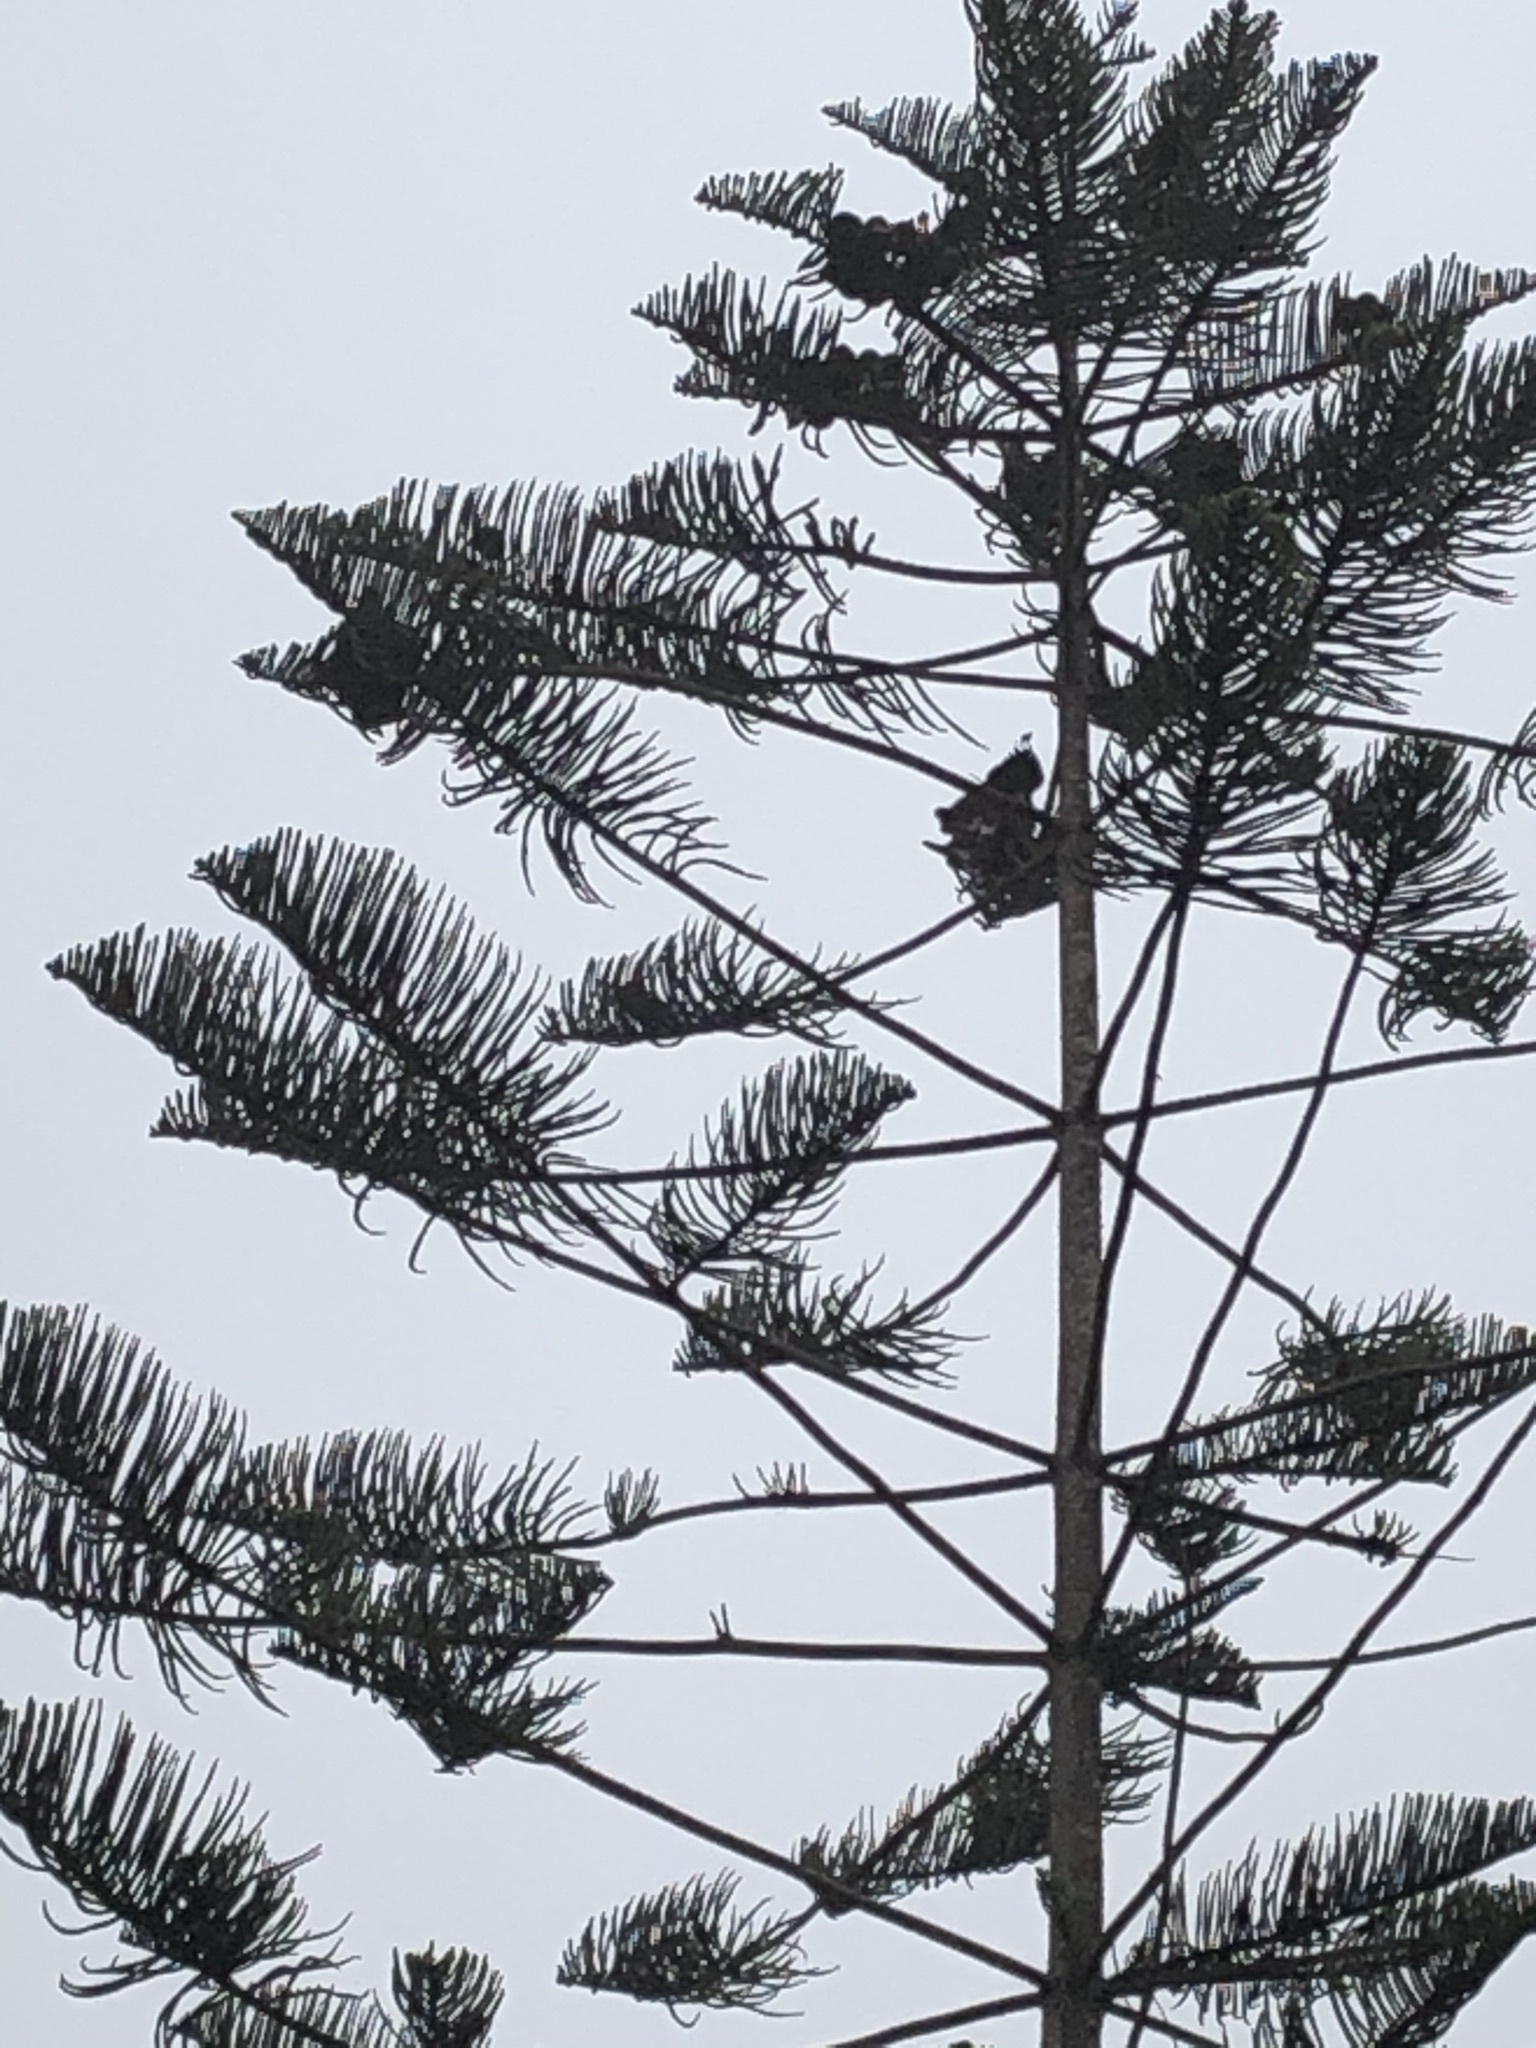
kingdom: Animalia
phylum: Chordata
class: Aves
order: Accipitriformes
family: Accipitridae
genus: Parabuteo
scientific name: Parabuteo unicinctus
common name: Harris's hawk
